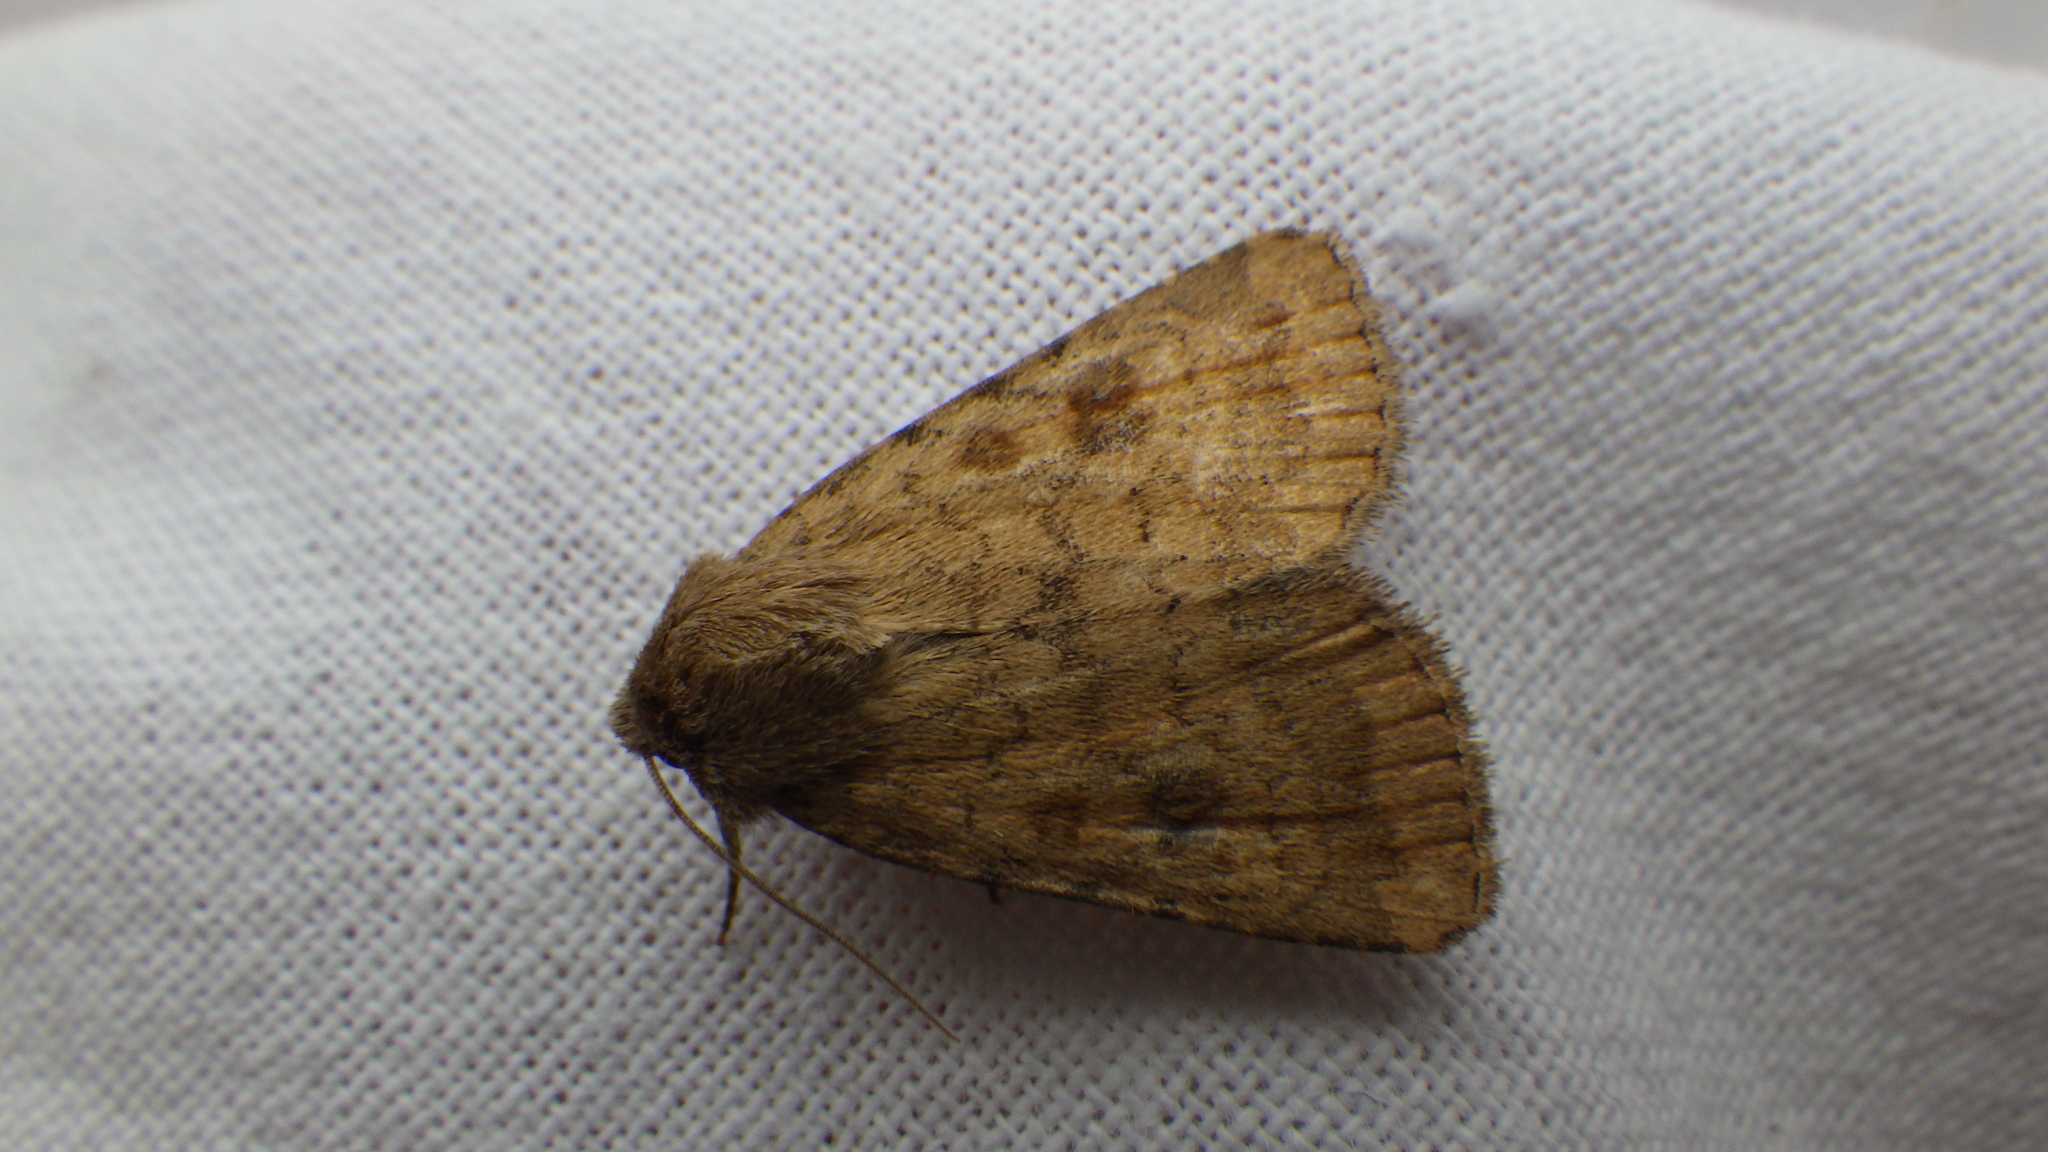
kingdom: Animalia
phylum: Arthropoda
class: Insecta
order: Lepidoptera
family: Noctuidae
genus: Caradrina
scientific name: Caradrina morpheus
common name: Mottled rustic
